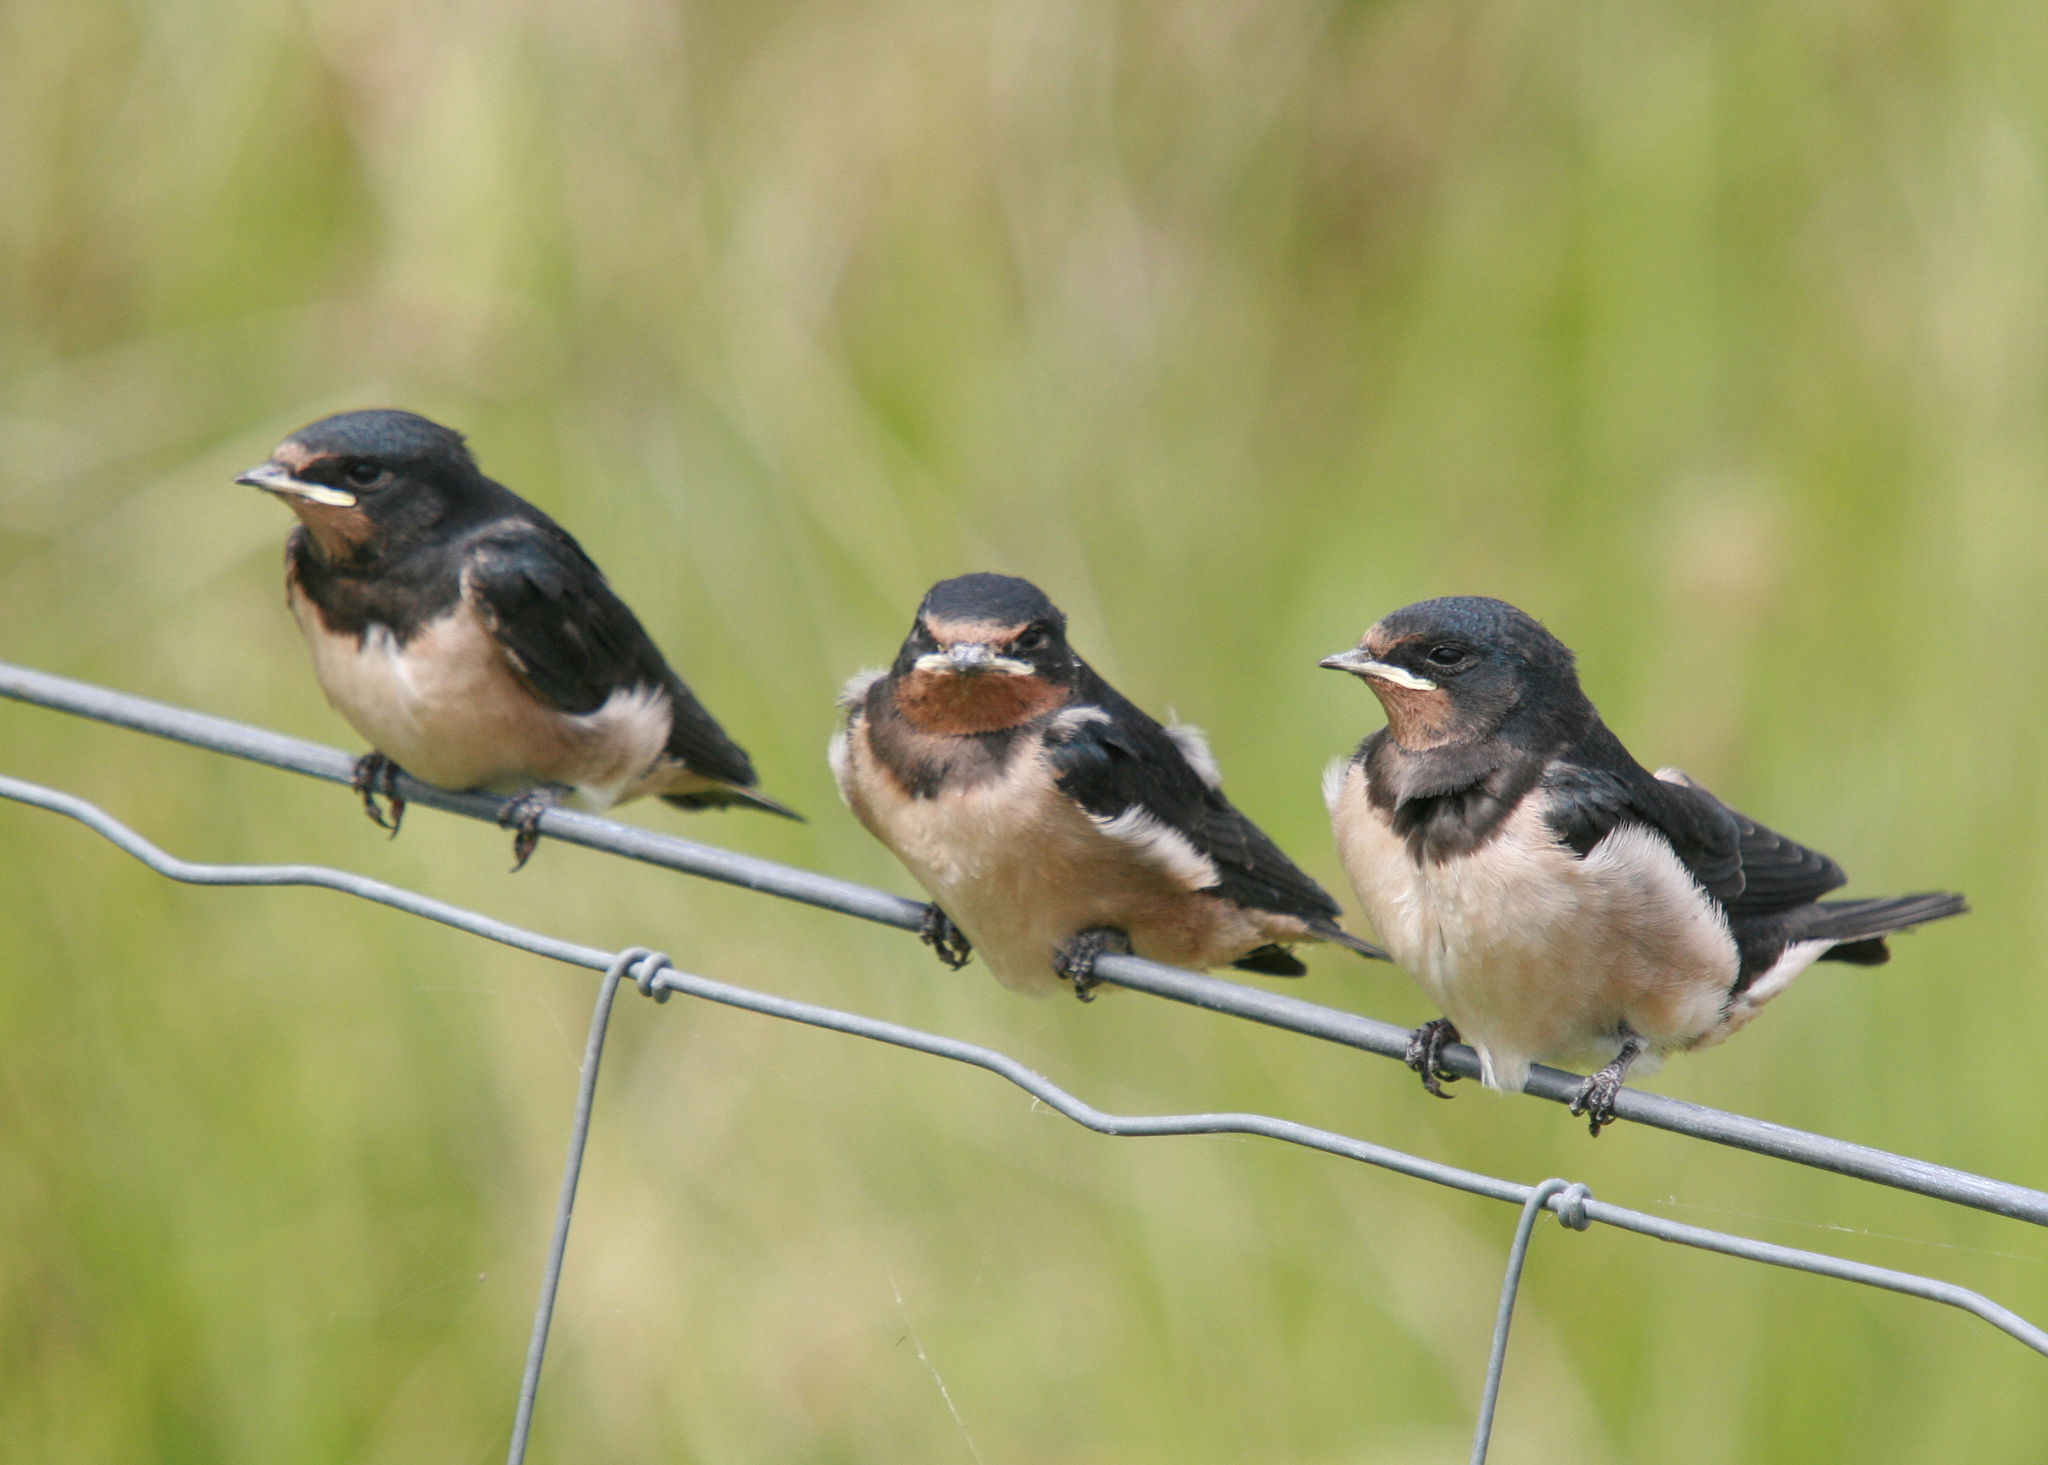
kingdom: Animalia
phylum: Chordata
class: Aves
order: Passeriformes
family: Hirundinidae
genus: Hirundo
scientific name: Hirundo rustica
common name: Barn swallow
